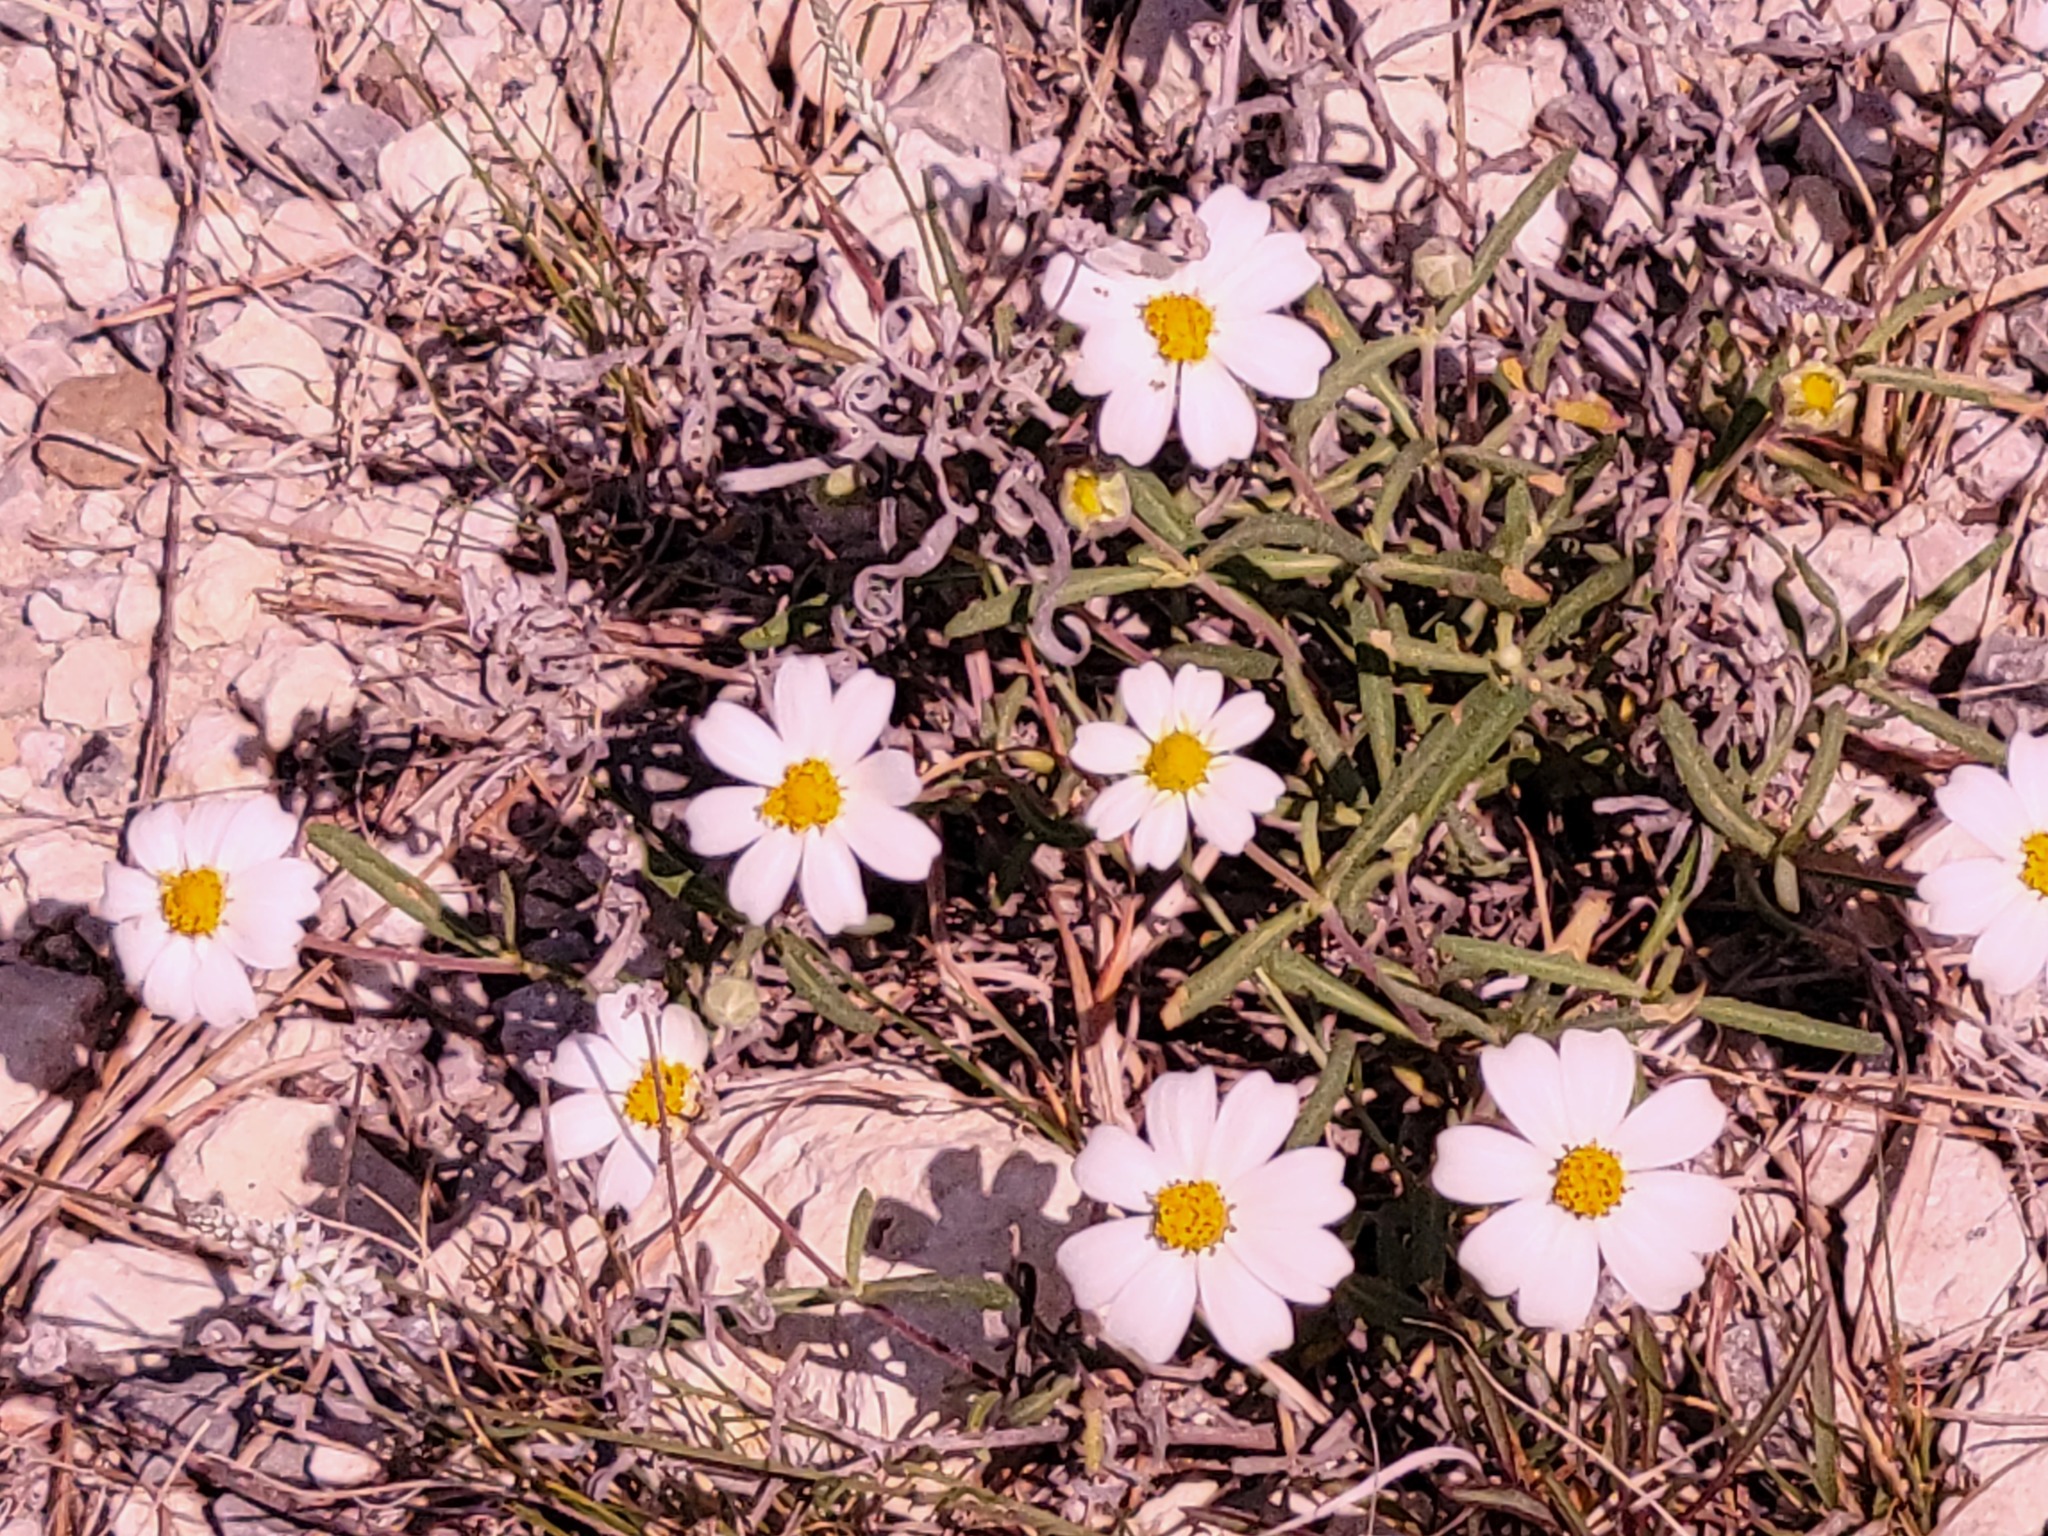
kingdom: Plantae
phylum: Tracheophyta
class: Magnoliopsida
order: Asterales
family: Asteraceae
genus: Melampodium
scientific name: Melampodium leucanthum
